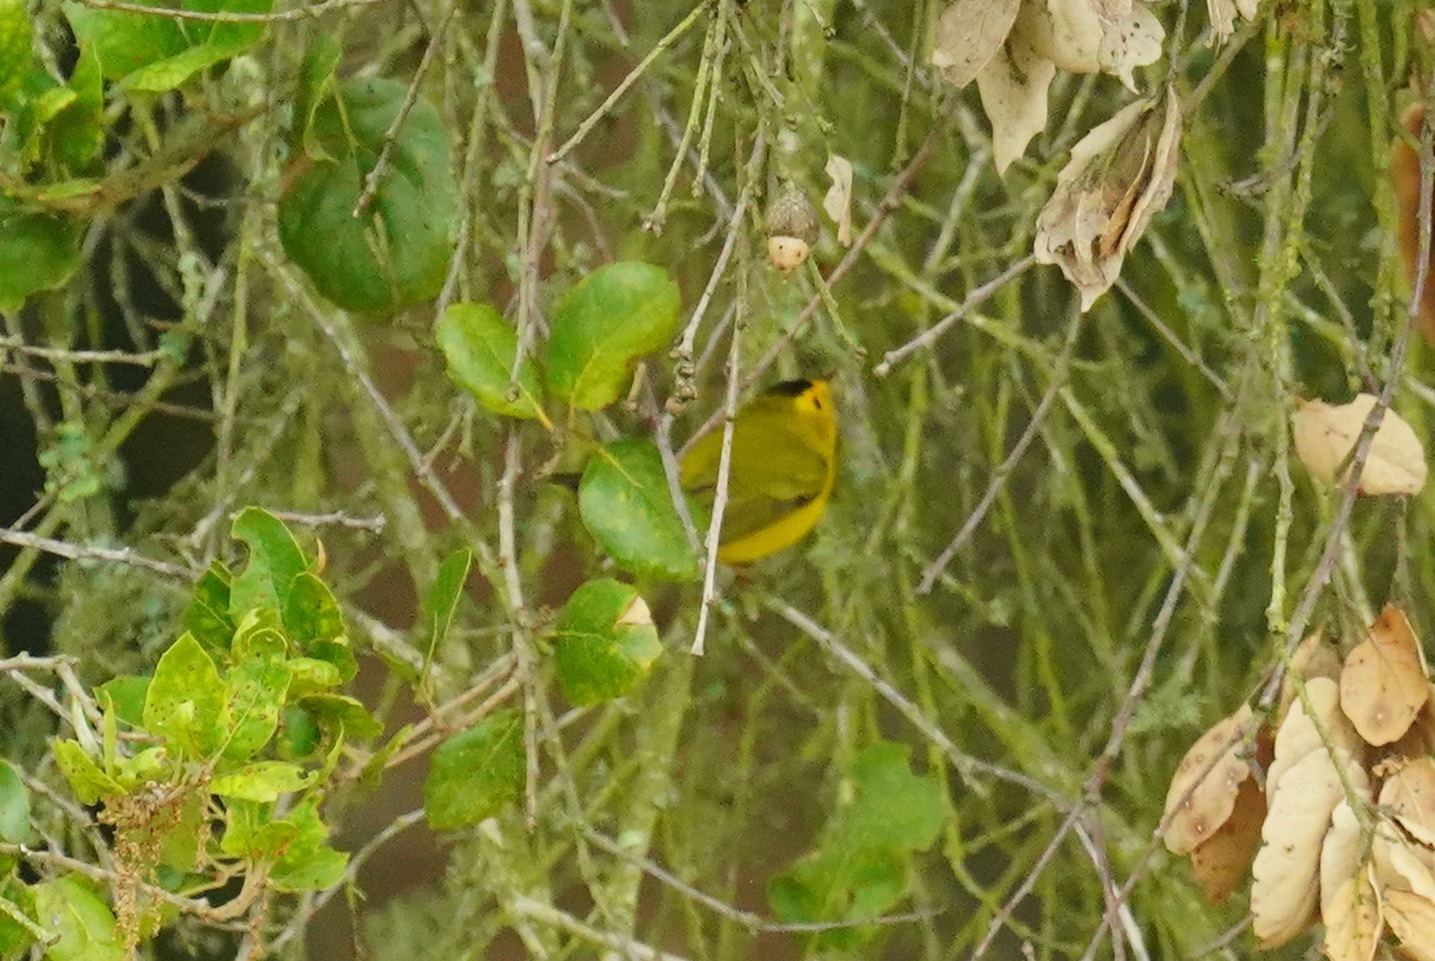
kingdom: Animalia
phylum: Chordata
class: Aves
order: Passeriformes
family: Parulidae
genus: Cardellina
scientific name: Cardellina pusilla
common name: Wilson's warbler
